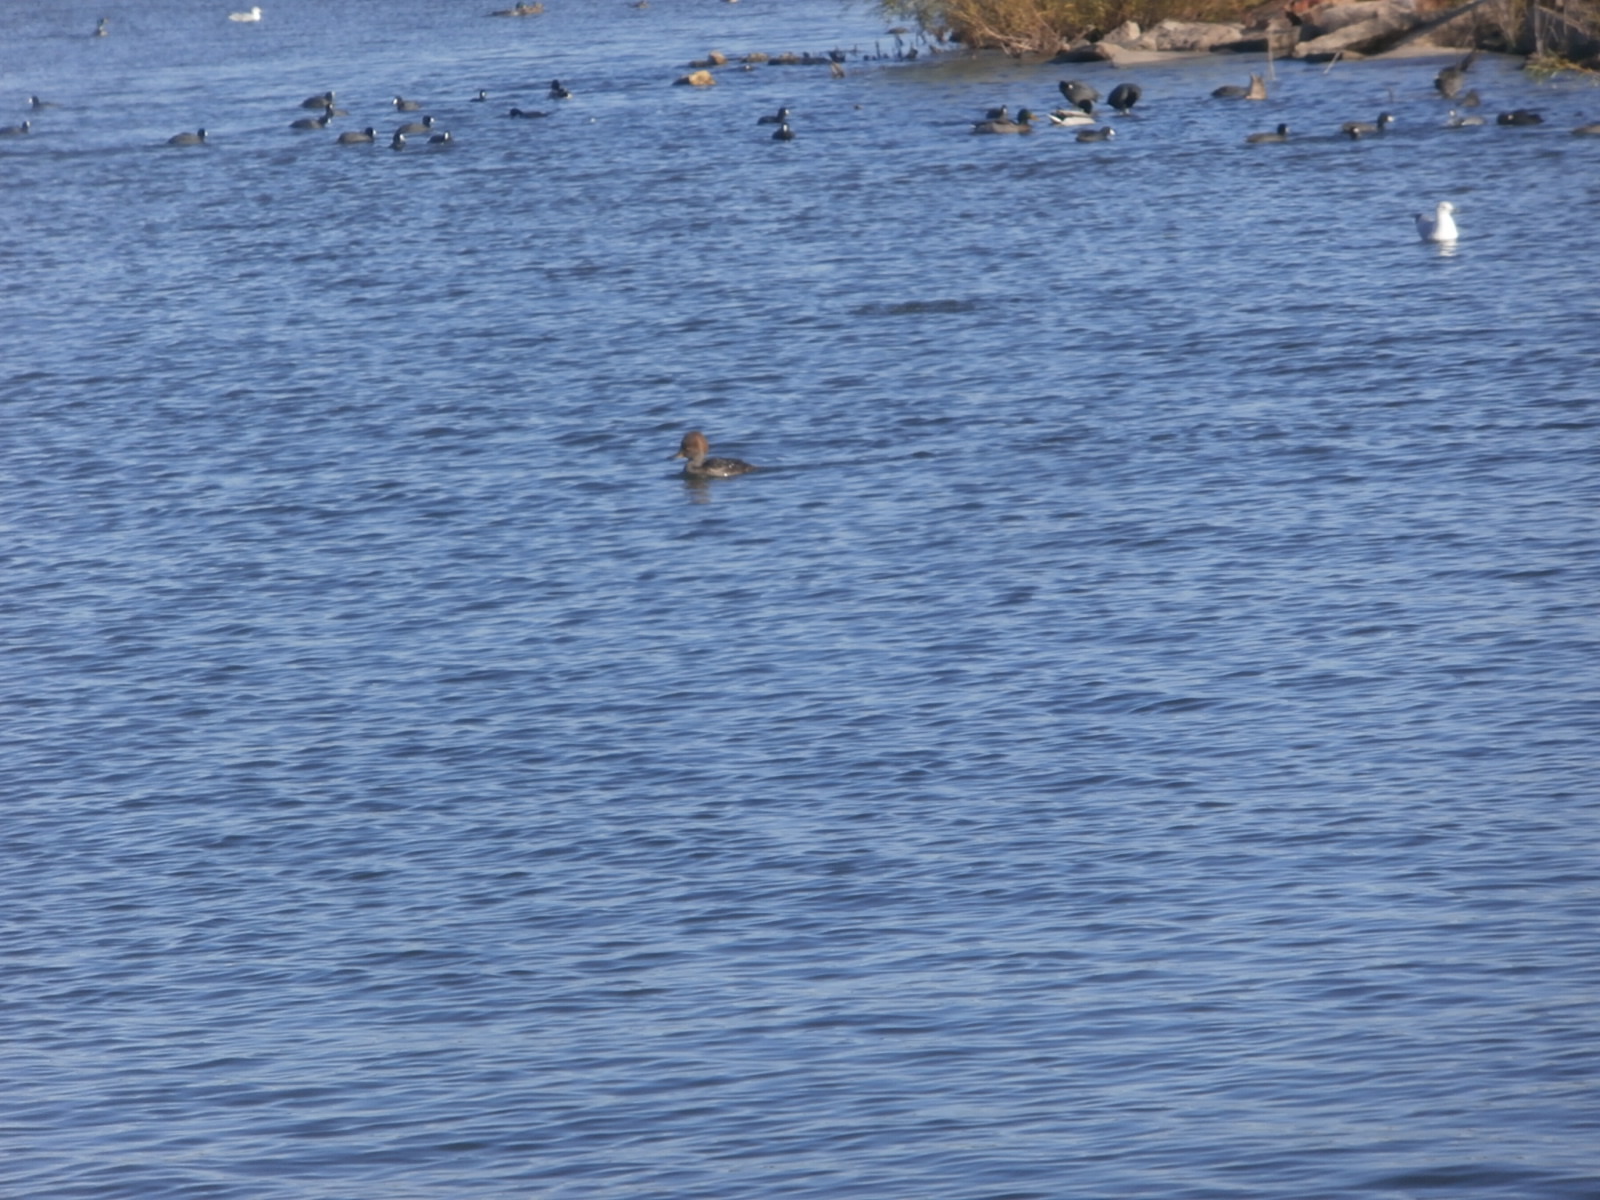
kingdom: Animalia
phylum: Chordata
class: Aves
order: Anseriformes
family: Anatidae
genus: Lophodytes
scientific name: Lophodytes cucullatus
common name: Hooded merganser
